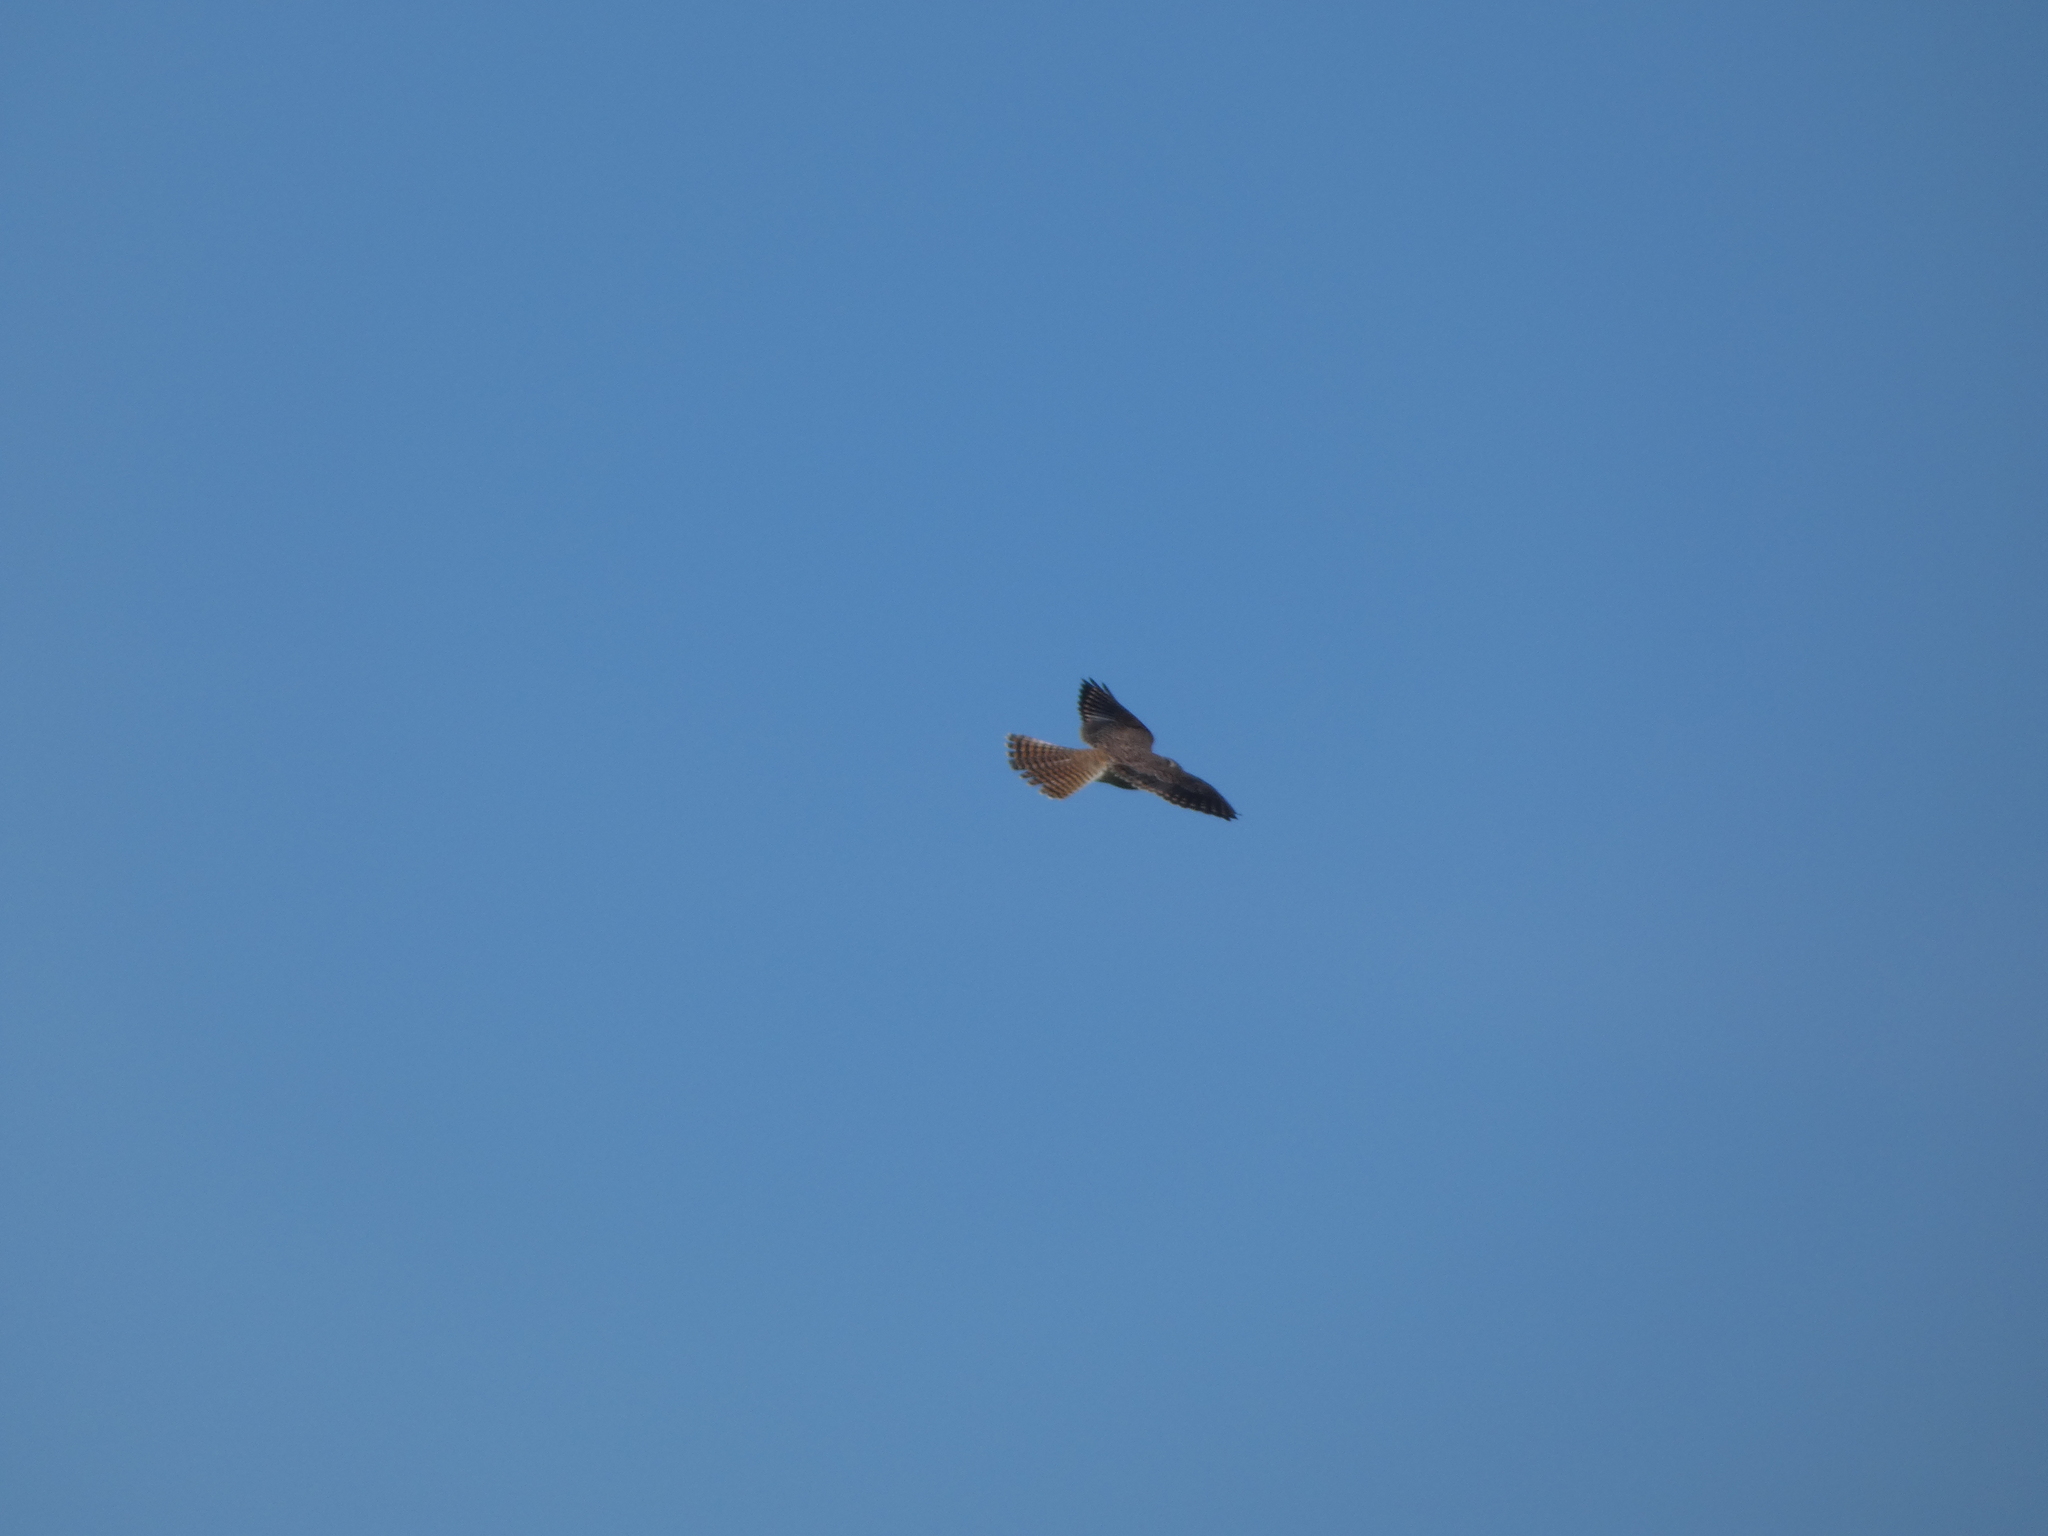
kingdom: Animalia
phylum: Chordata
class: Aves
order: Falconiformes
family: Falconidae
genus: Falco
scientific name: Falco sparverius
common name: American kestrel
